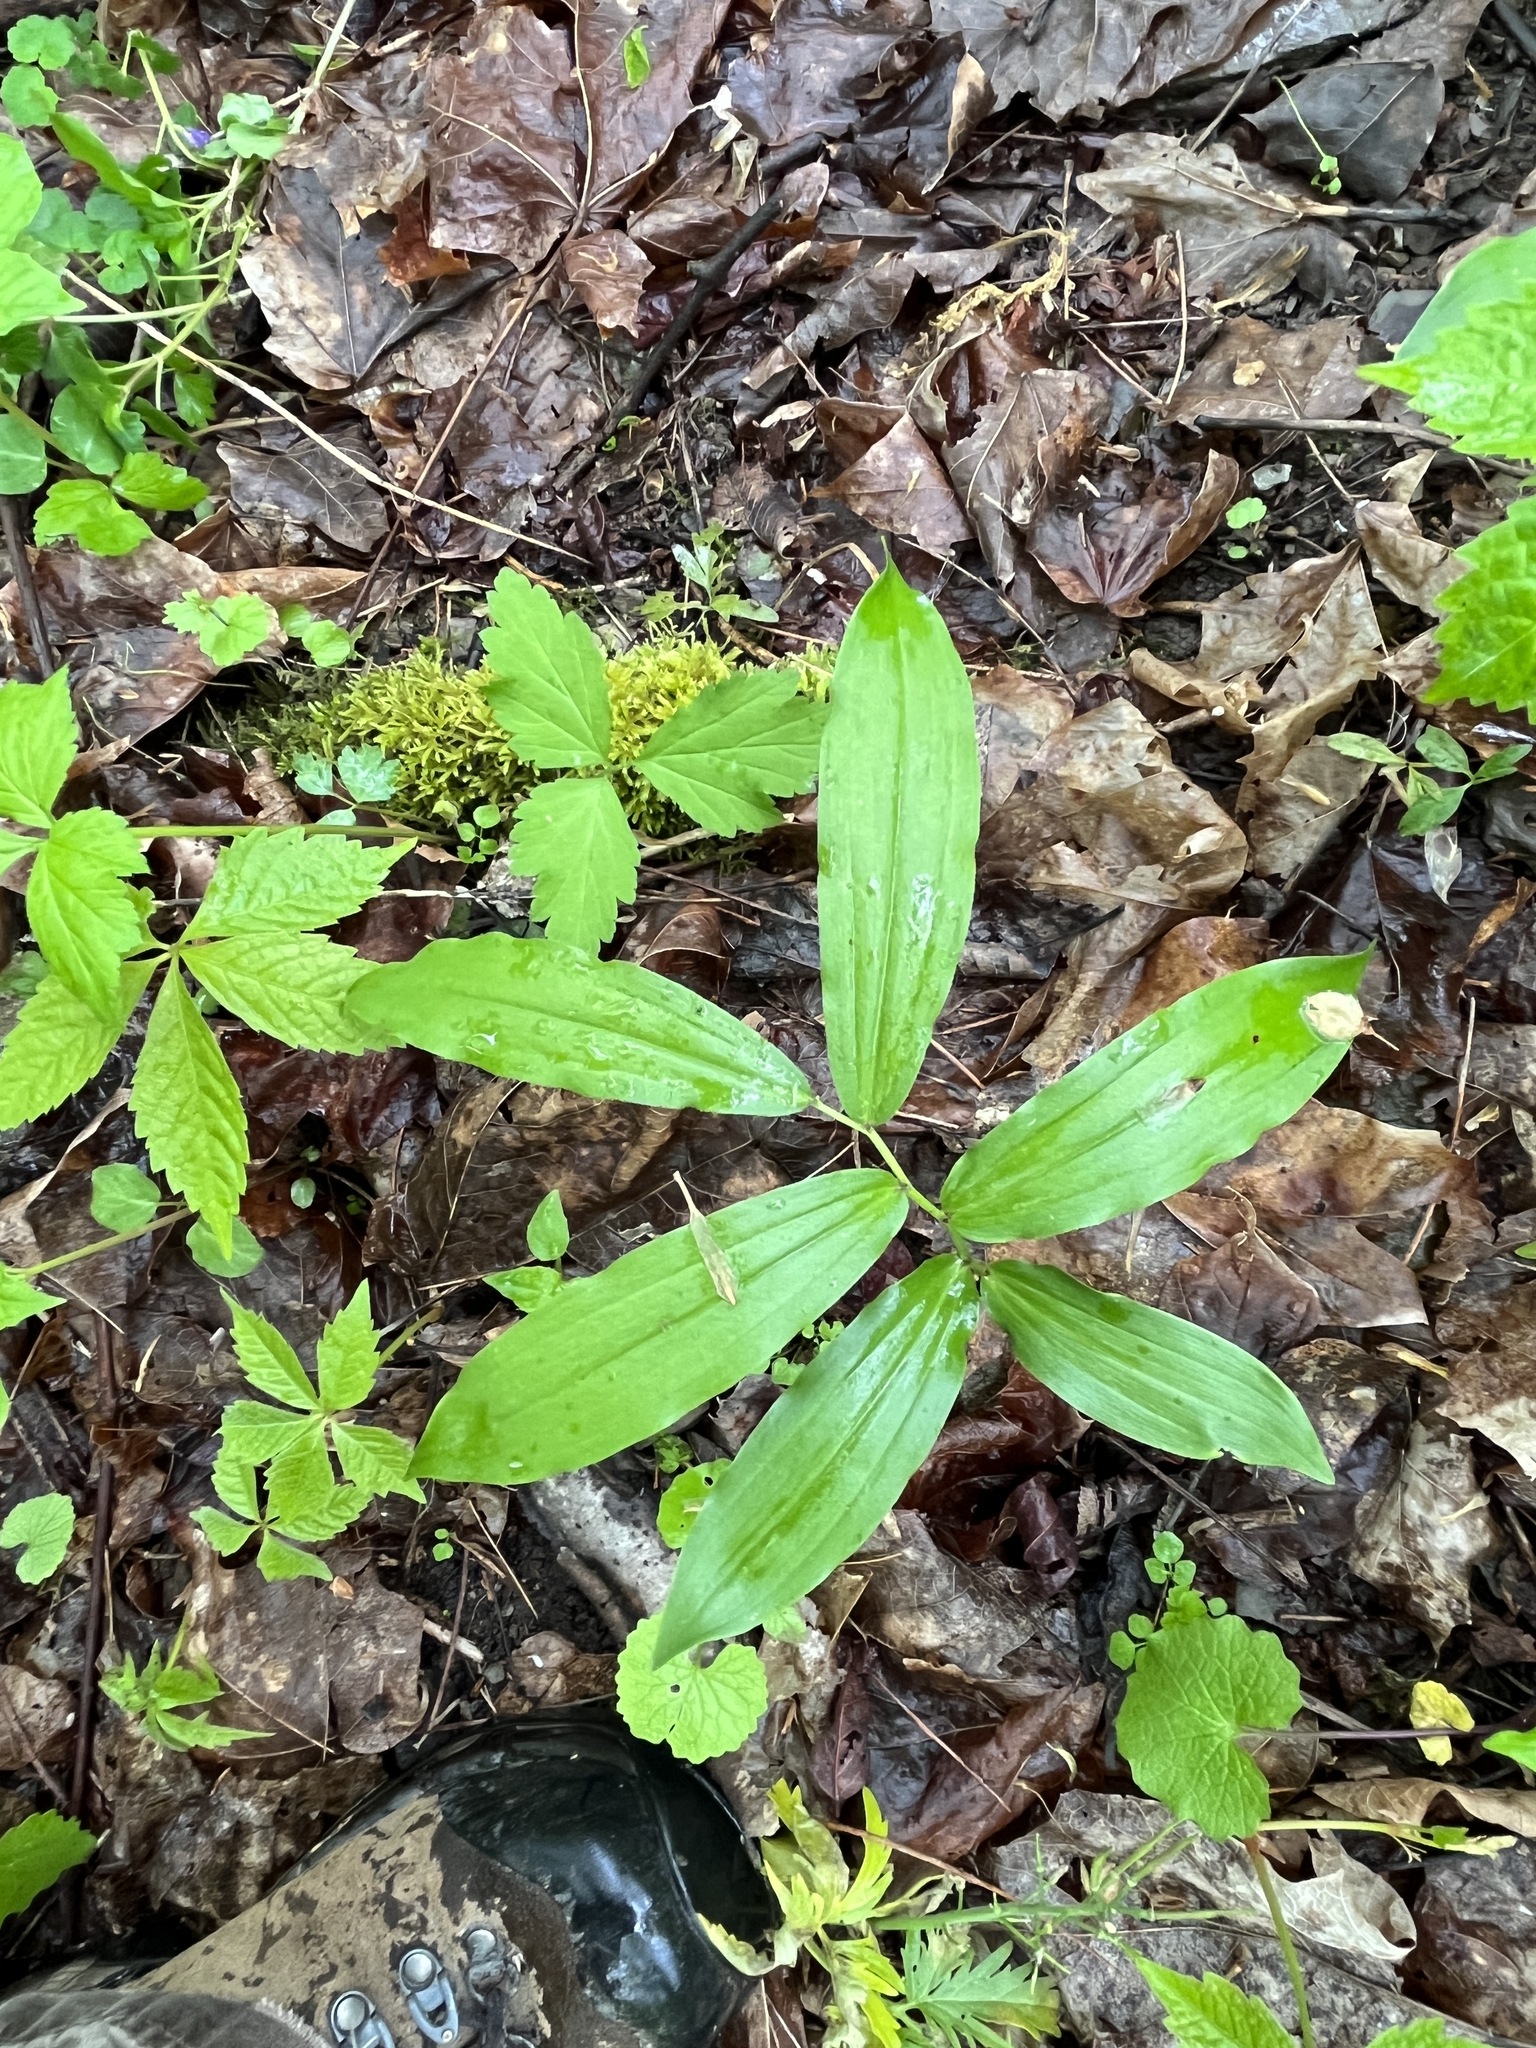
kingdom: Plantae
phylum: Tracheophyta
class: Liliopsida
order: Asparagales
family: Asparagaceae
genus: Maianthemum
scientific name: Maianthemum racemosum
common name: False spikenard
